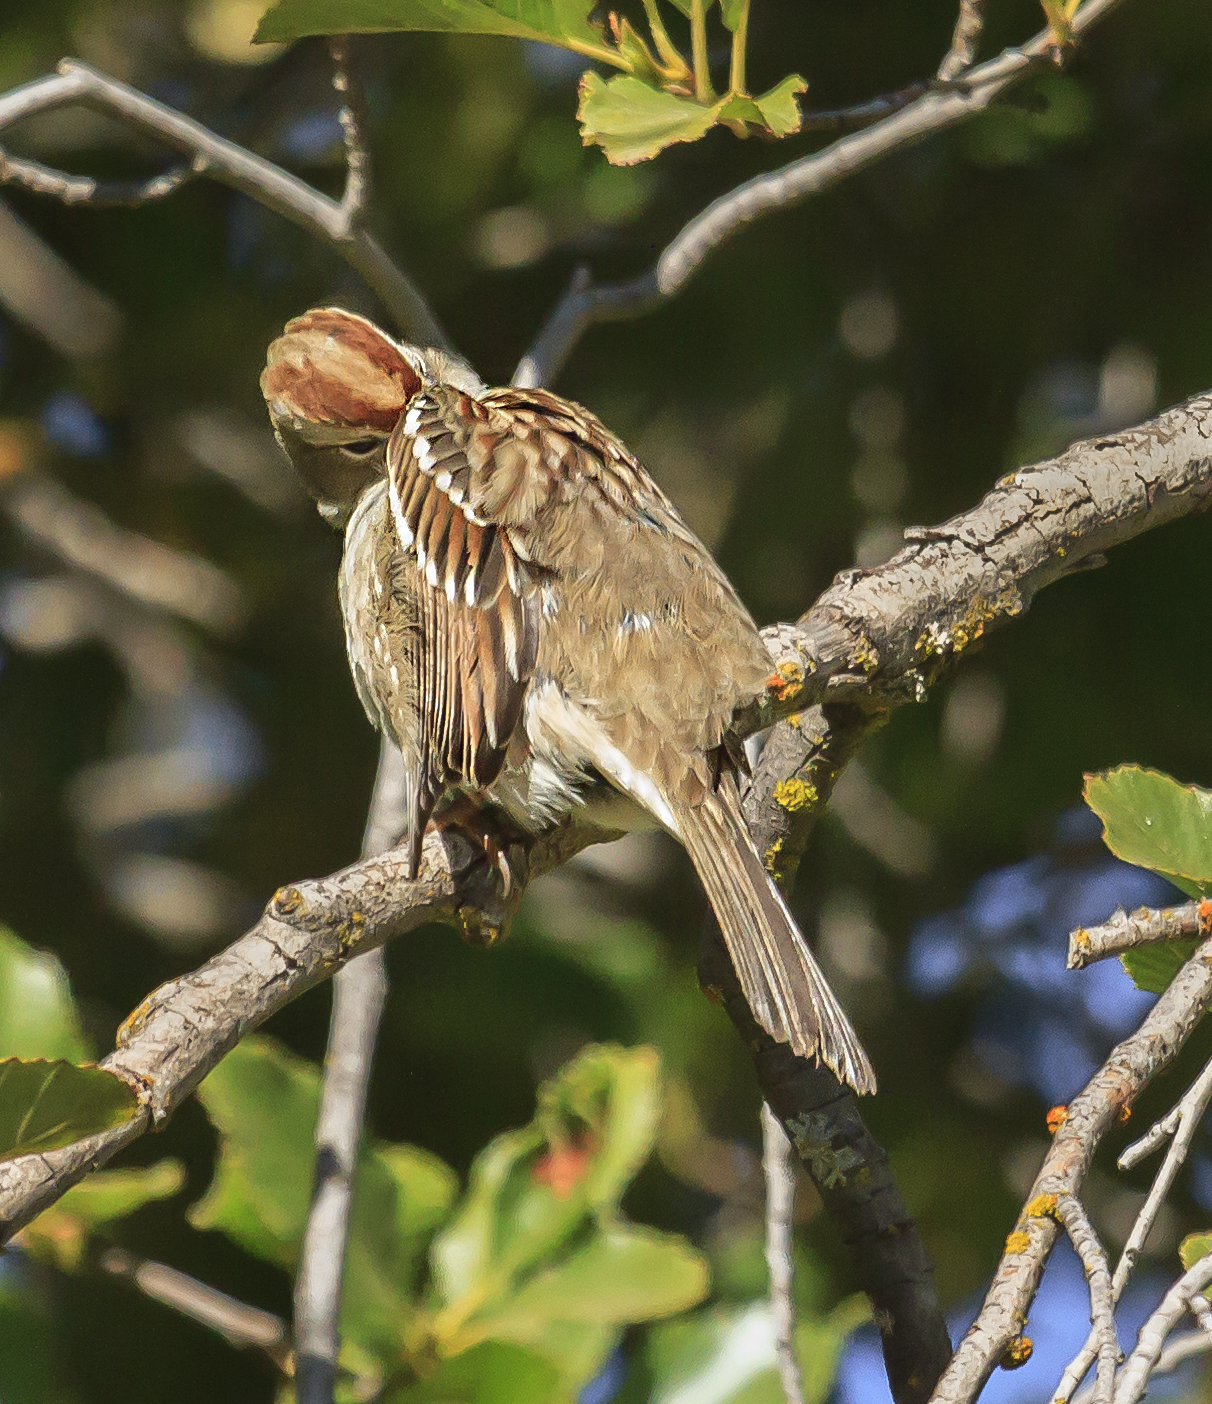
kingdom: Animalia
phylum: Chordata
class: Aves
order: Passeriformes
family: Passerellidae
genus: Zonotrichia
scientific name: Zonotrichia leucophrys
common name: White-crowned sparrow
